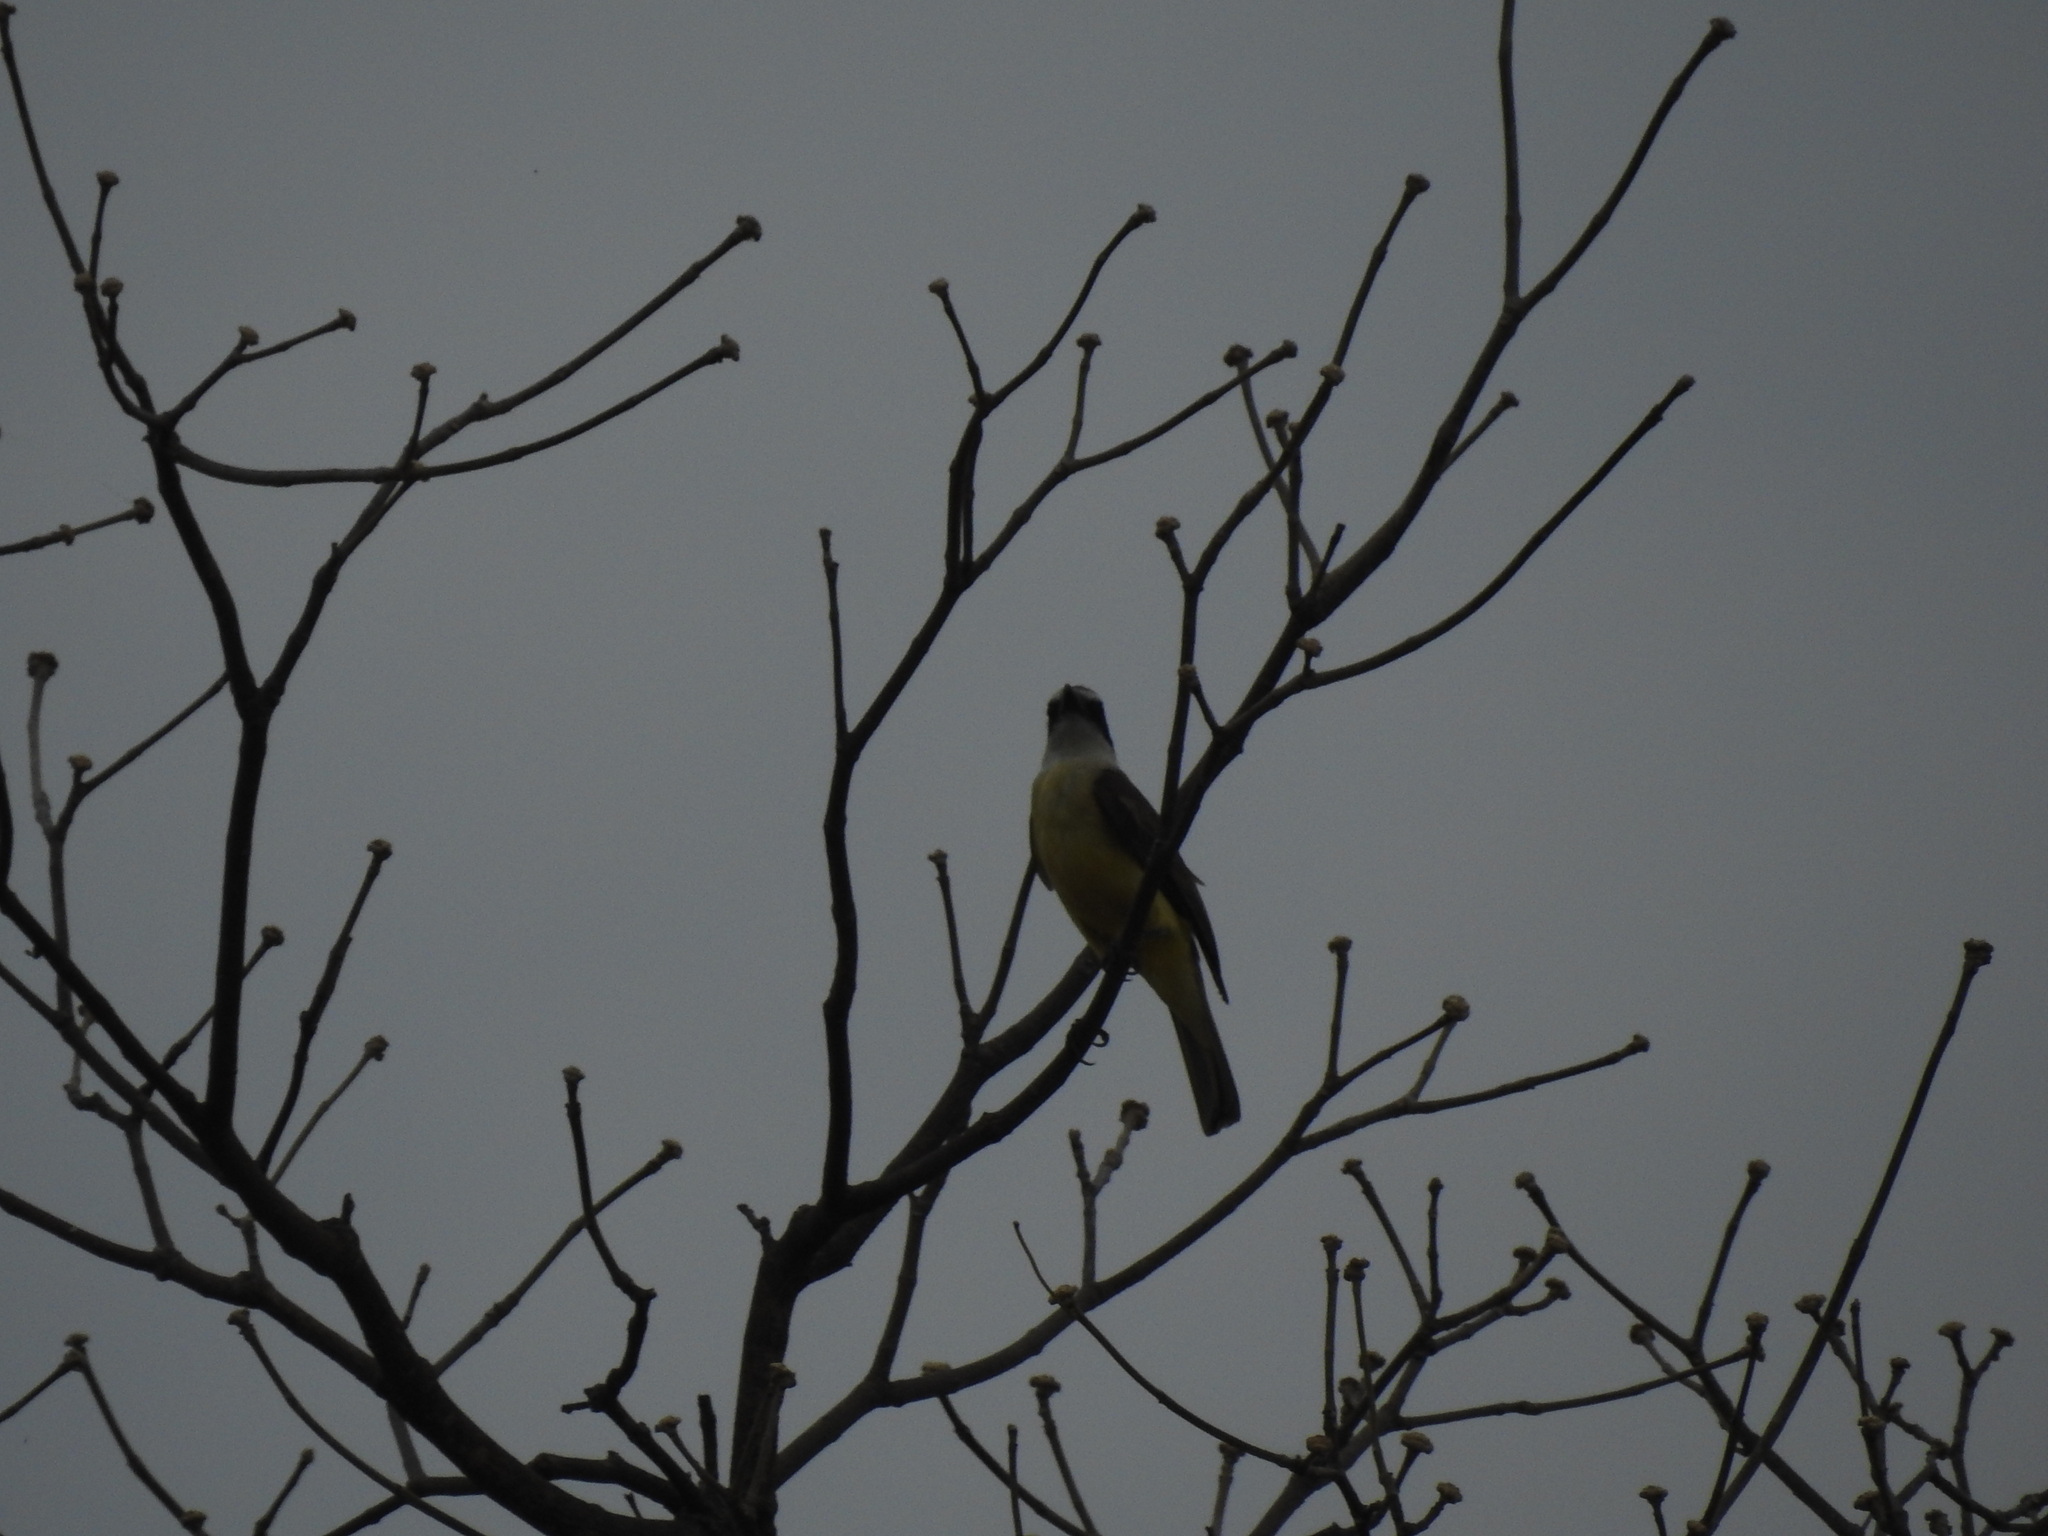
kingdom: Animalia
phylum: Chordata
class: Aves
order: Passeriformes
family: Tyrannidae
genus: Pitangus
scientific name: Pitangus sulphuratus
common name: Great kiskadee
